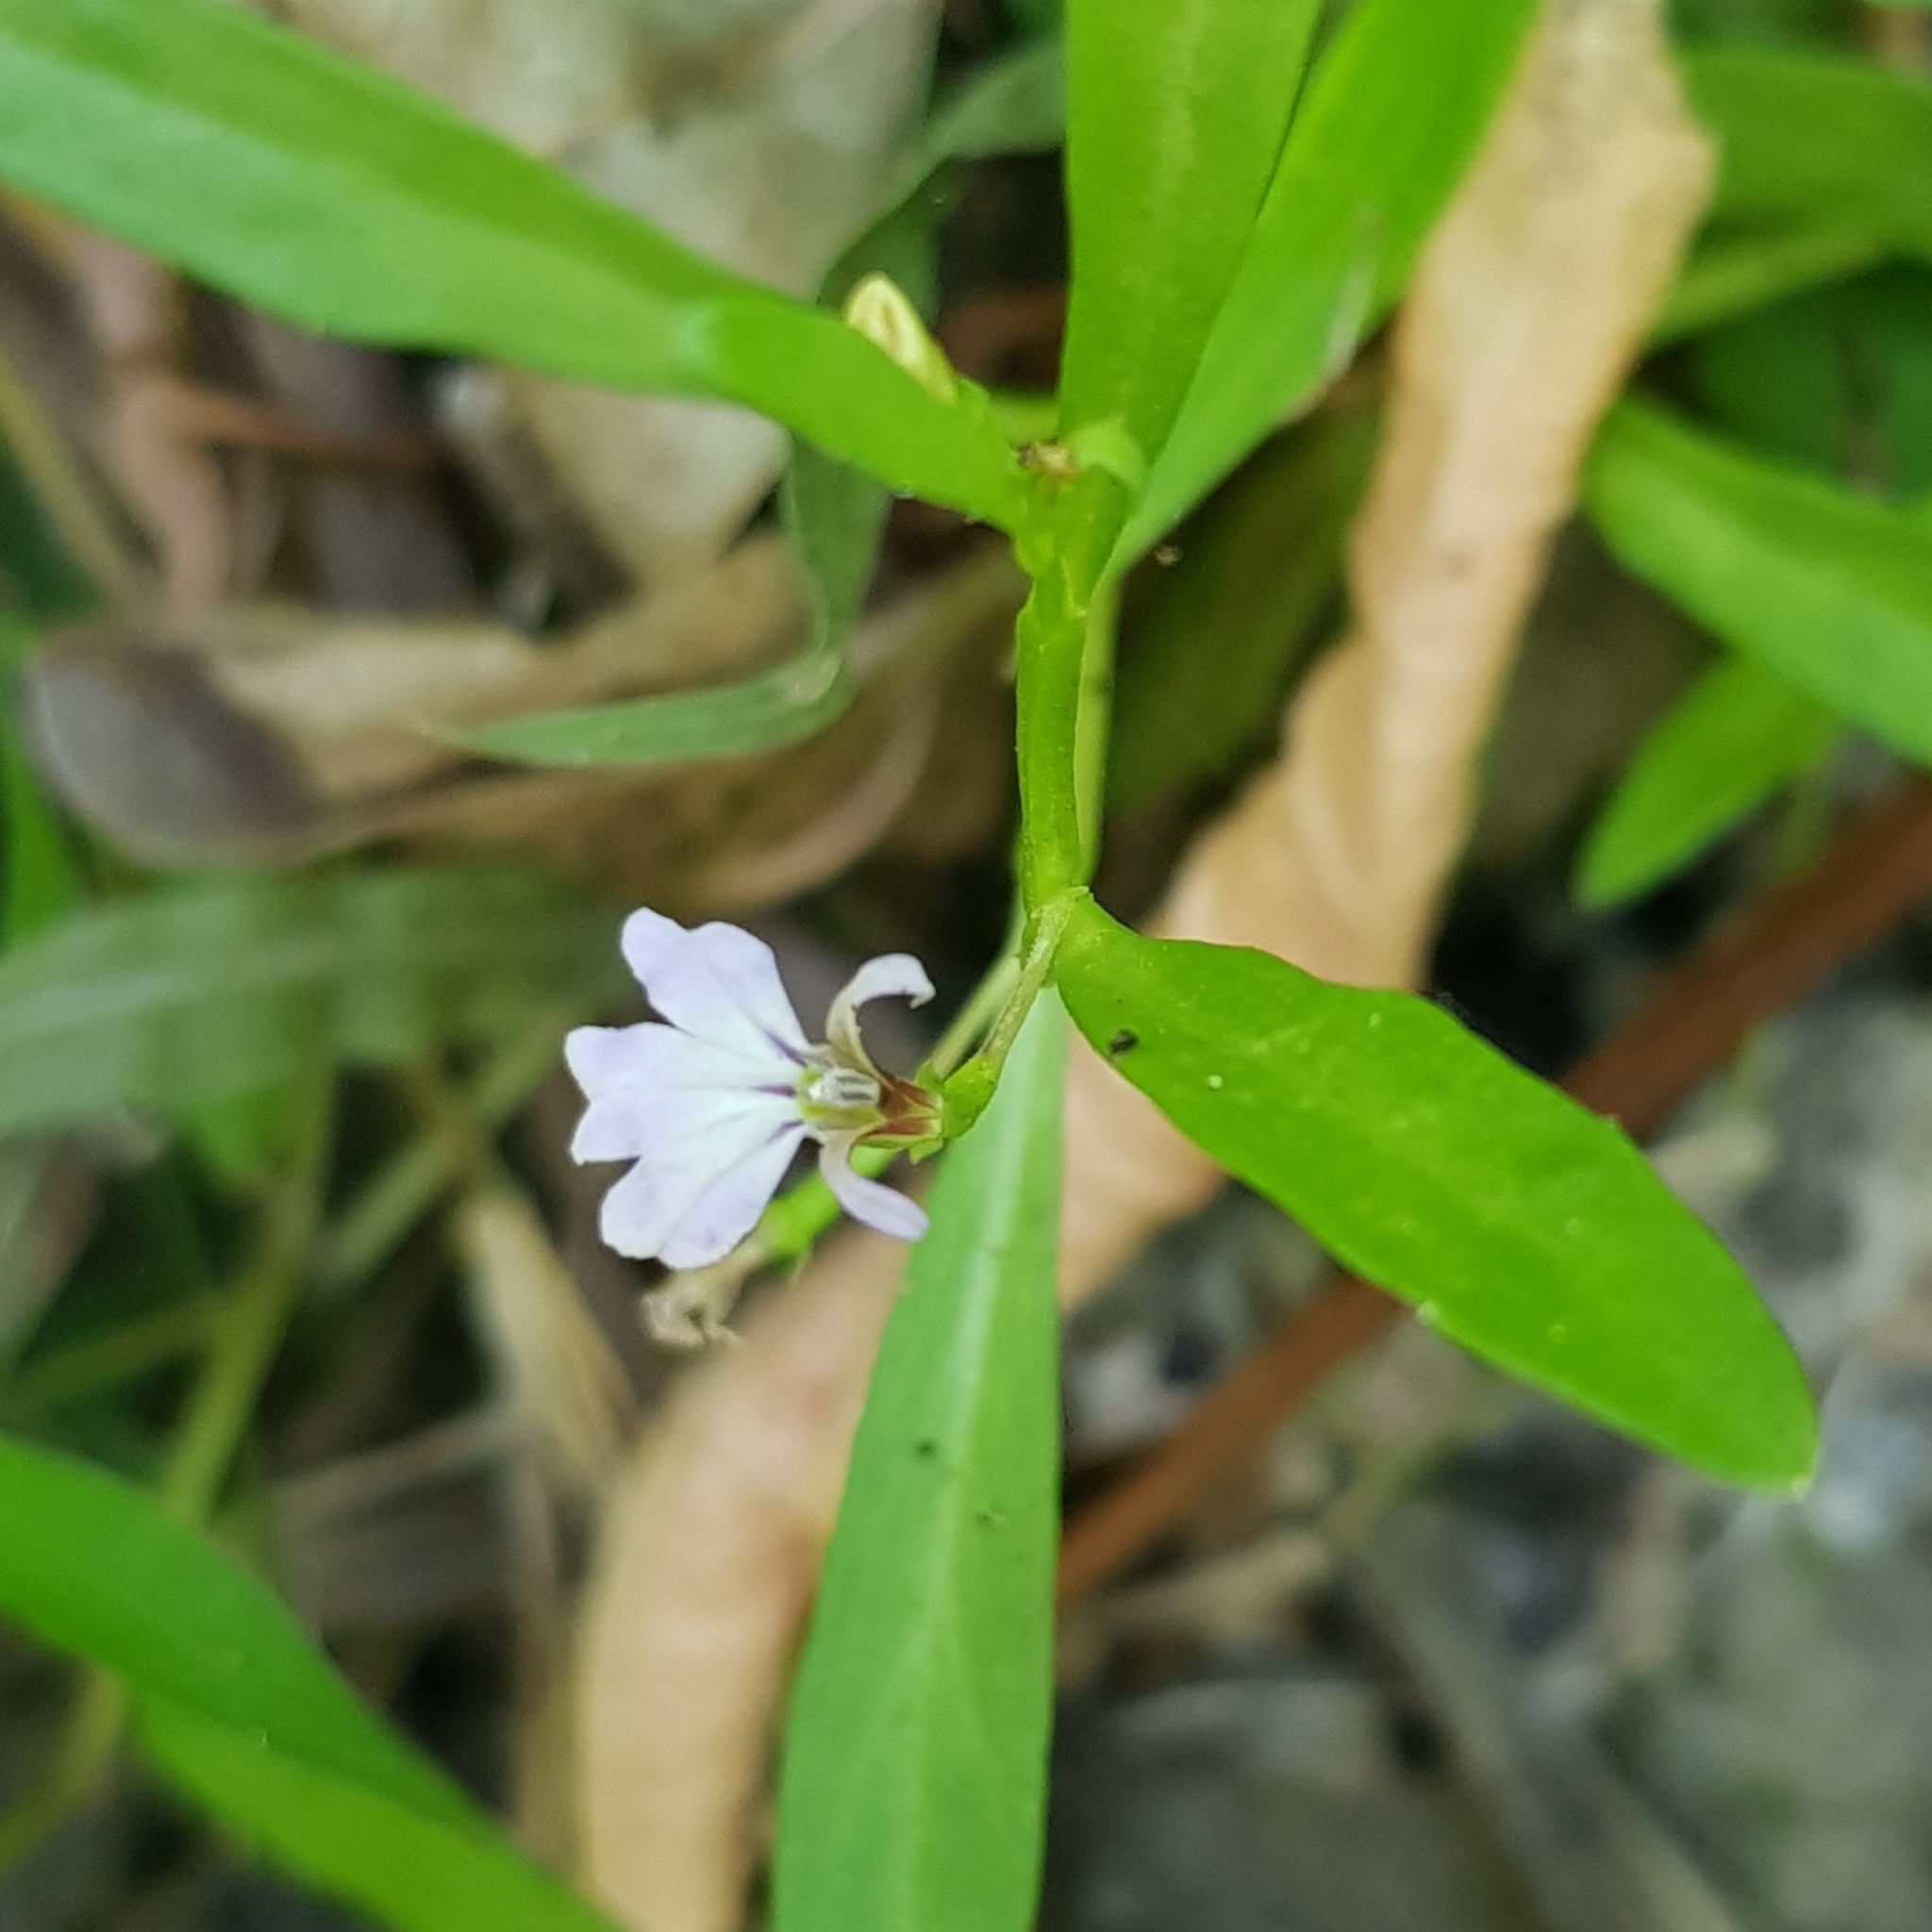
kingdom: Plantae
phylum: Tracheophyta
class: Magnoliopsida
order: Asterales
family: Campanulaceae
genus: Lobelia
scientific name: Lobelia anceps
